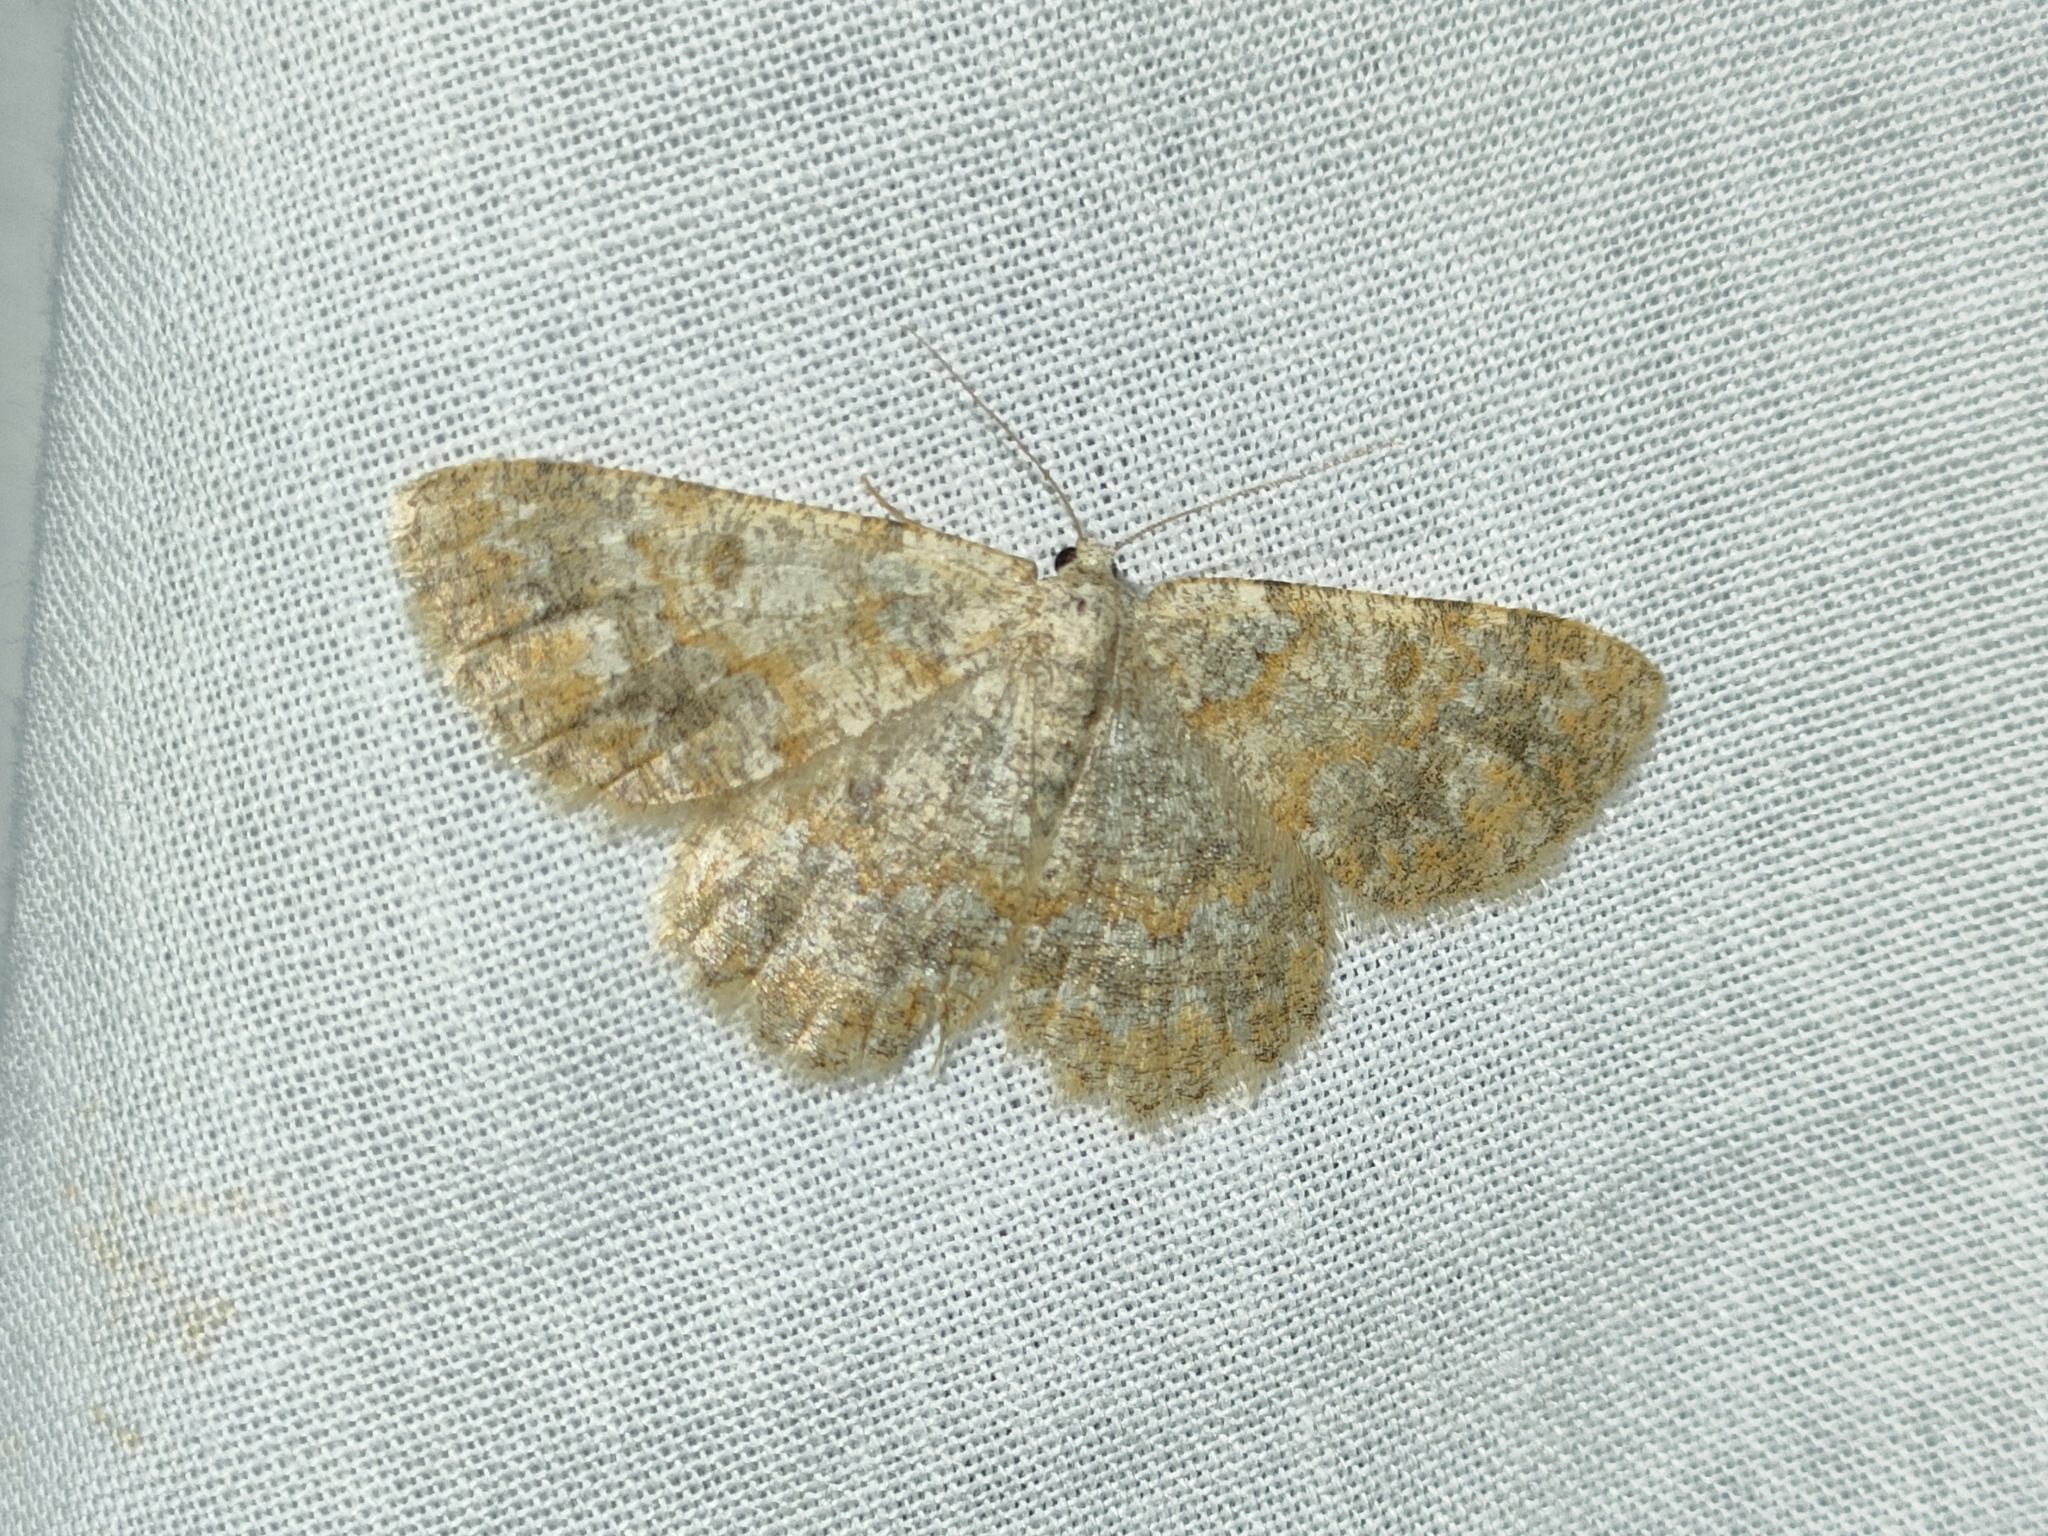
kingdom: Animalia
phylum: Arthropoda
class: Insecta
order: Lepidoptera
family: Geometridae
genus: Charissa
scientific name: Charissa mucidaria
